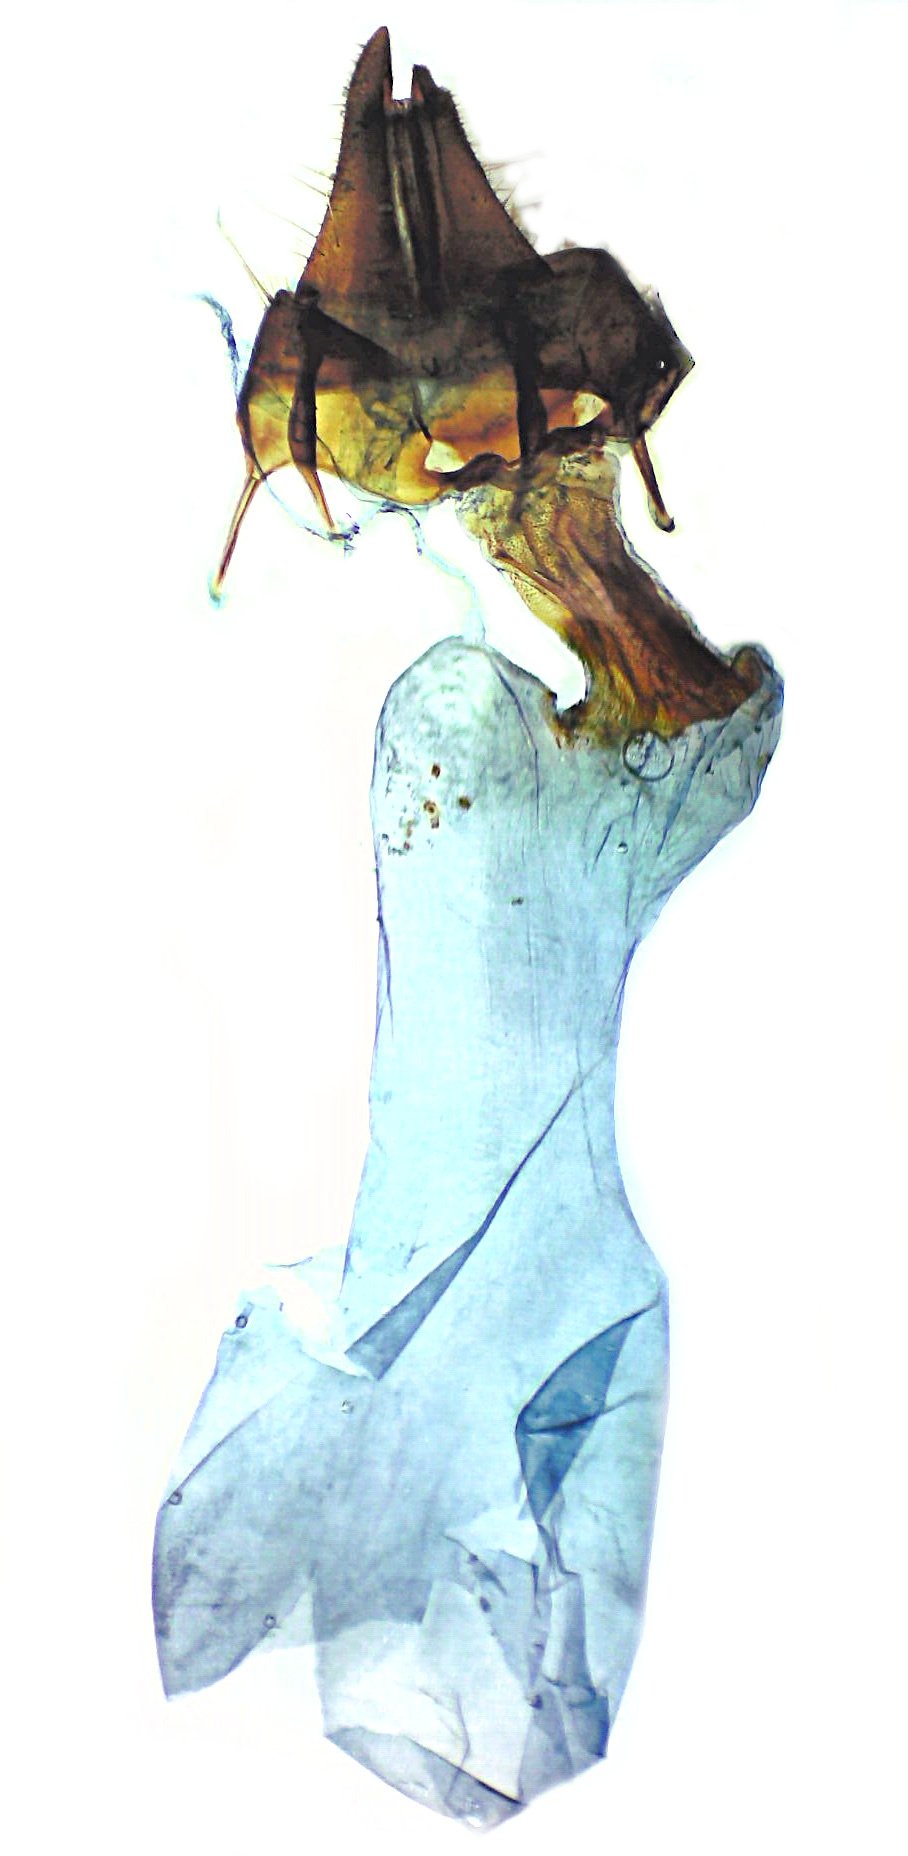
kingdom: Animalia
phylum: Arthropoda
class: Insecta
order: Lepidoptera
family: Noctuidae
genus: Apamea
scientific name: Apamea unanimis
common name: Small clouded brindle
